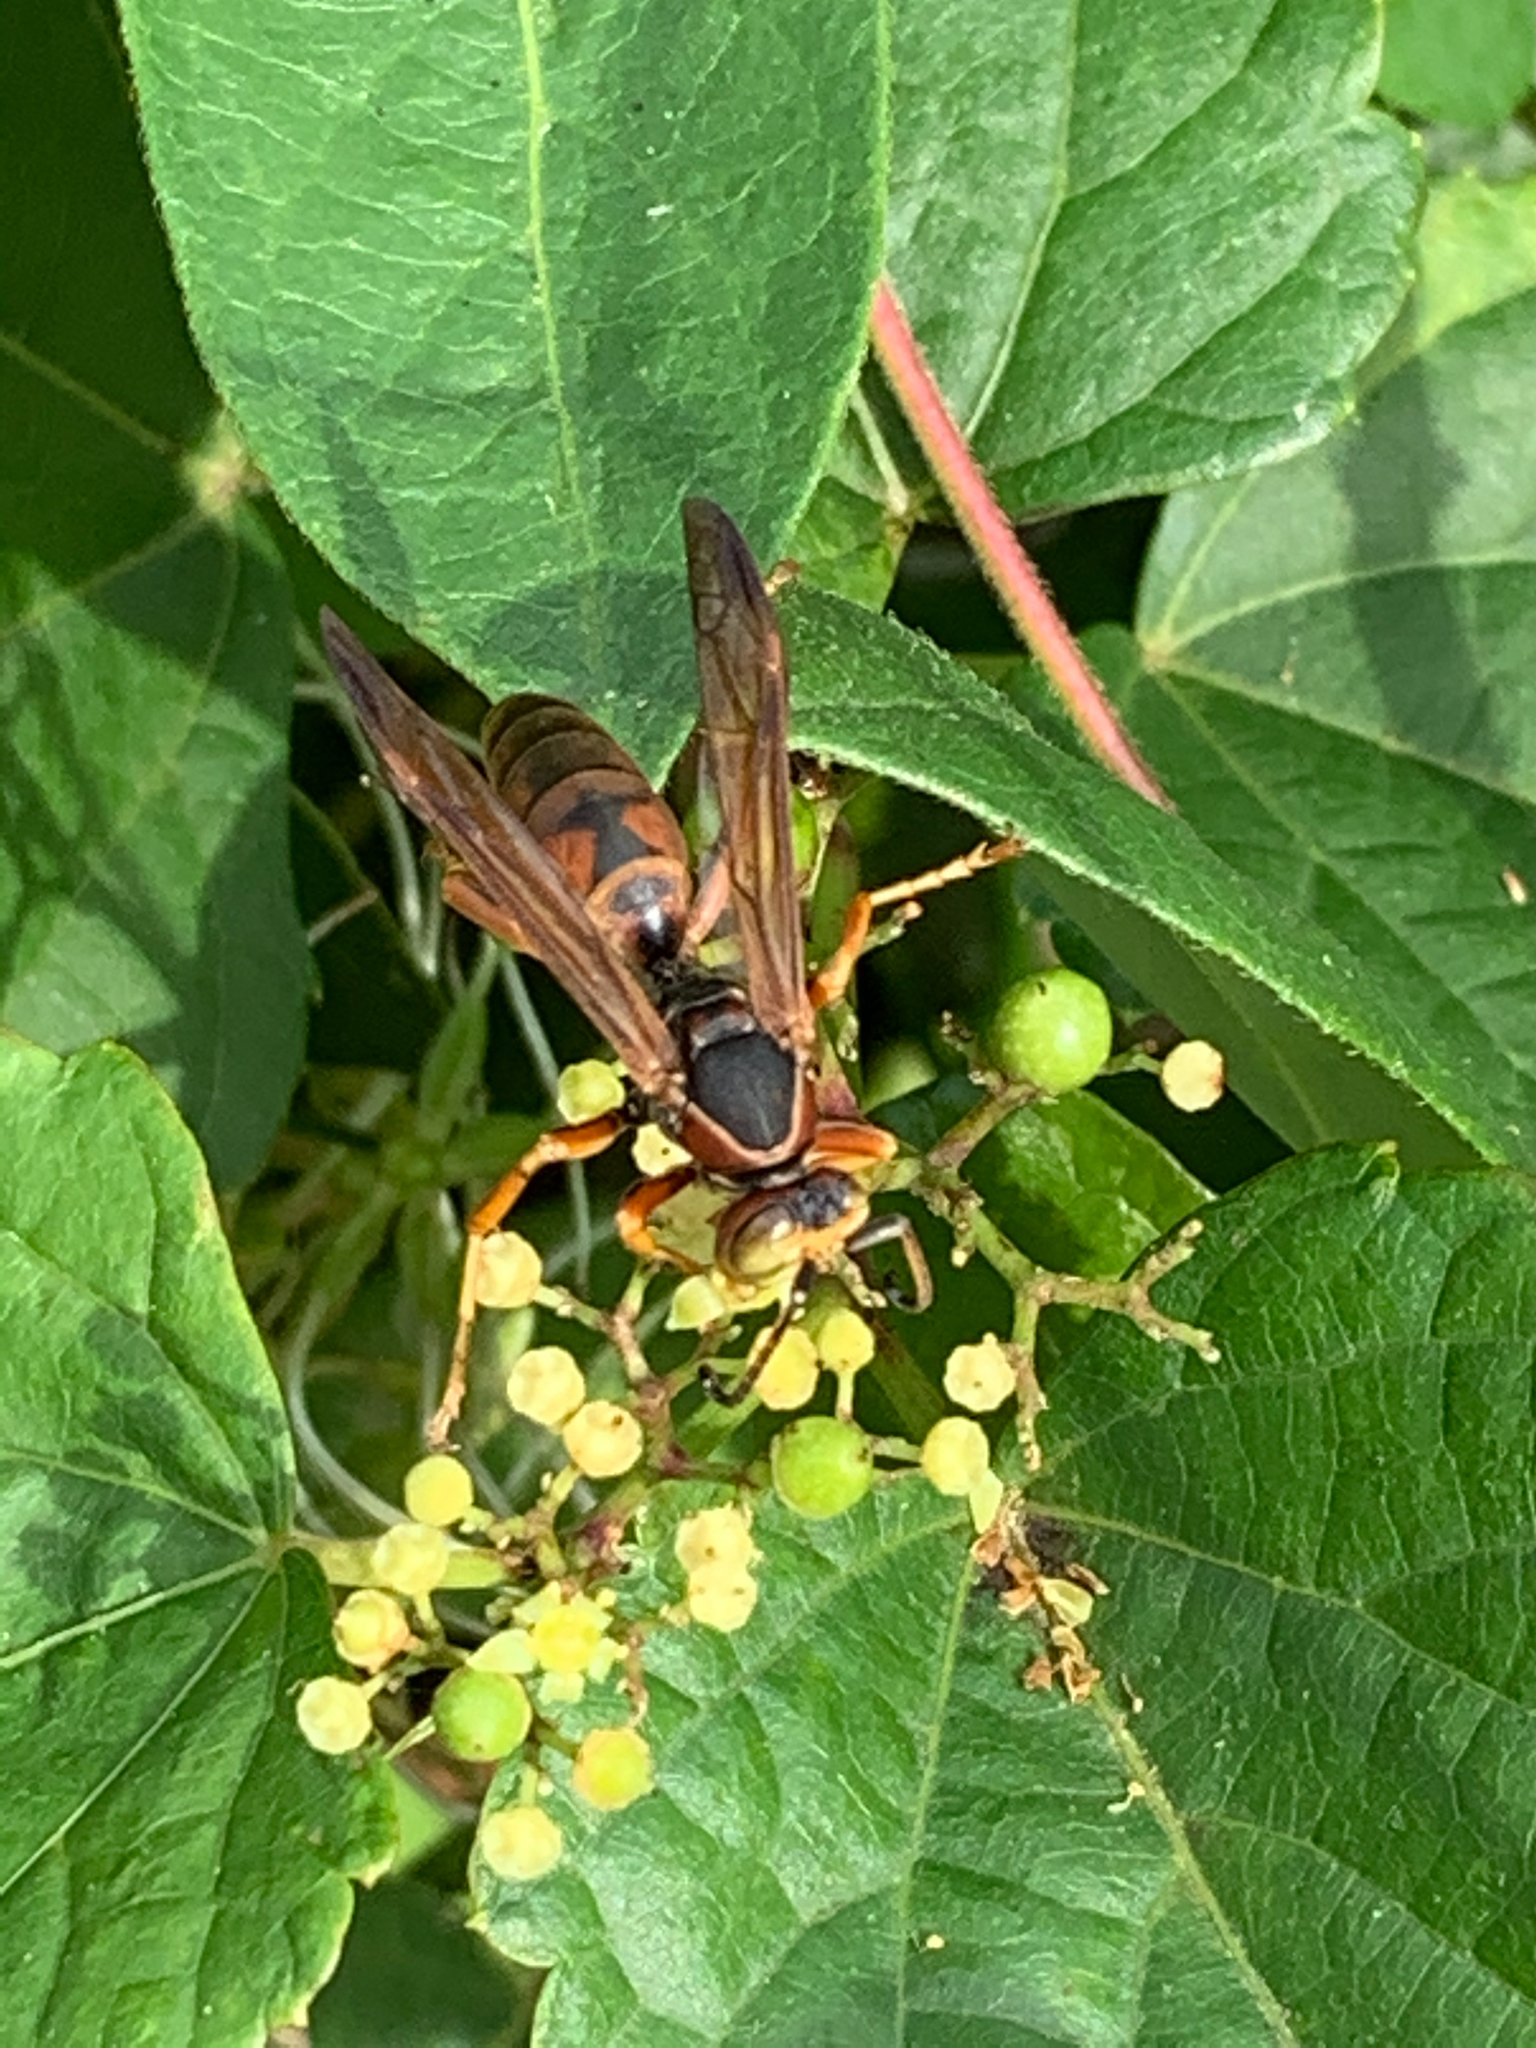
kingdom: Animalia
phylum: Arthropoda
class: Insecta
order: Hymenoptera
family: Eumenidae
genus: Polistes
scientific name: Polistes fuscatus
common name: Dark paper wasp
